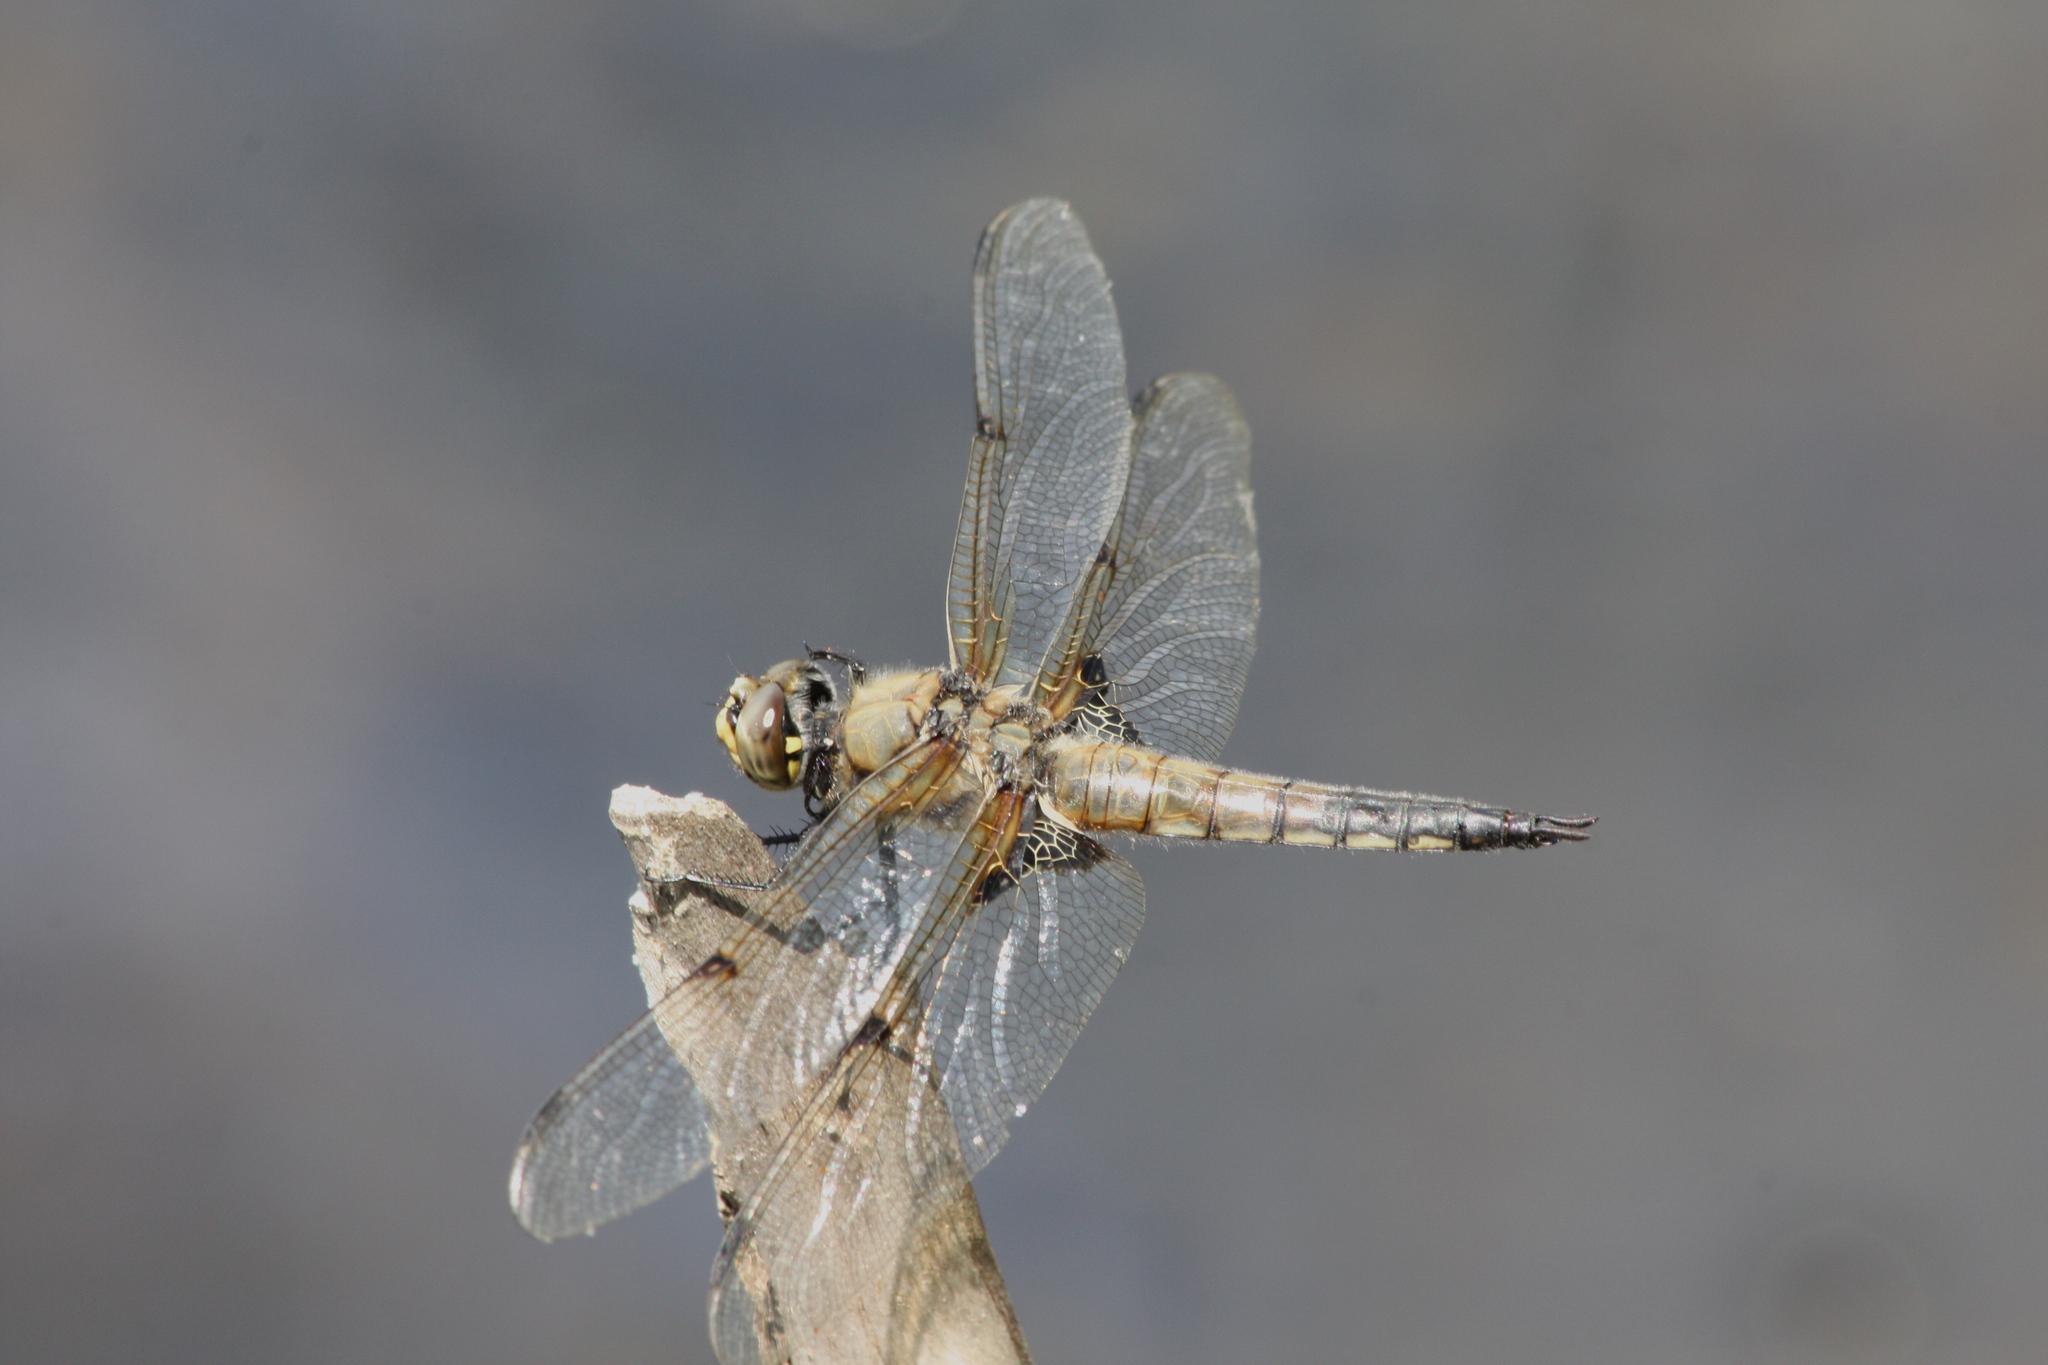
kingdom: Animalia
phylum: Arthropoda
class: Insecta
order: Odonata
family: Libellulidae
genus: Libellula
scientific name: Libellula quadrimaculata
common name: Four-spotted chaser
